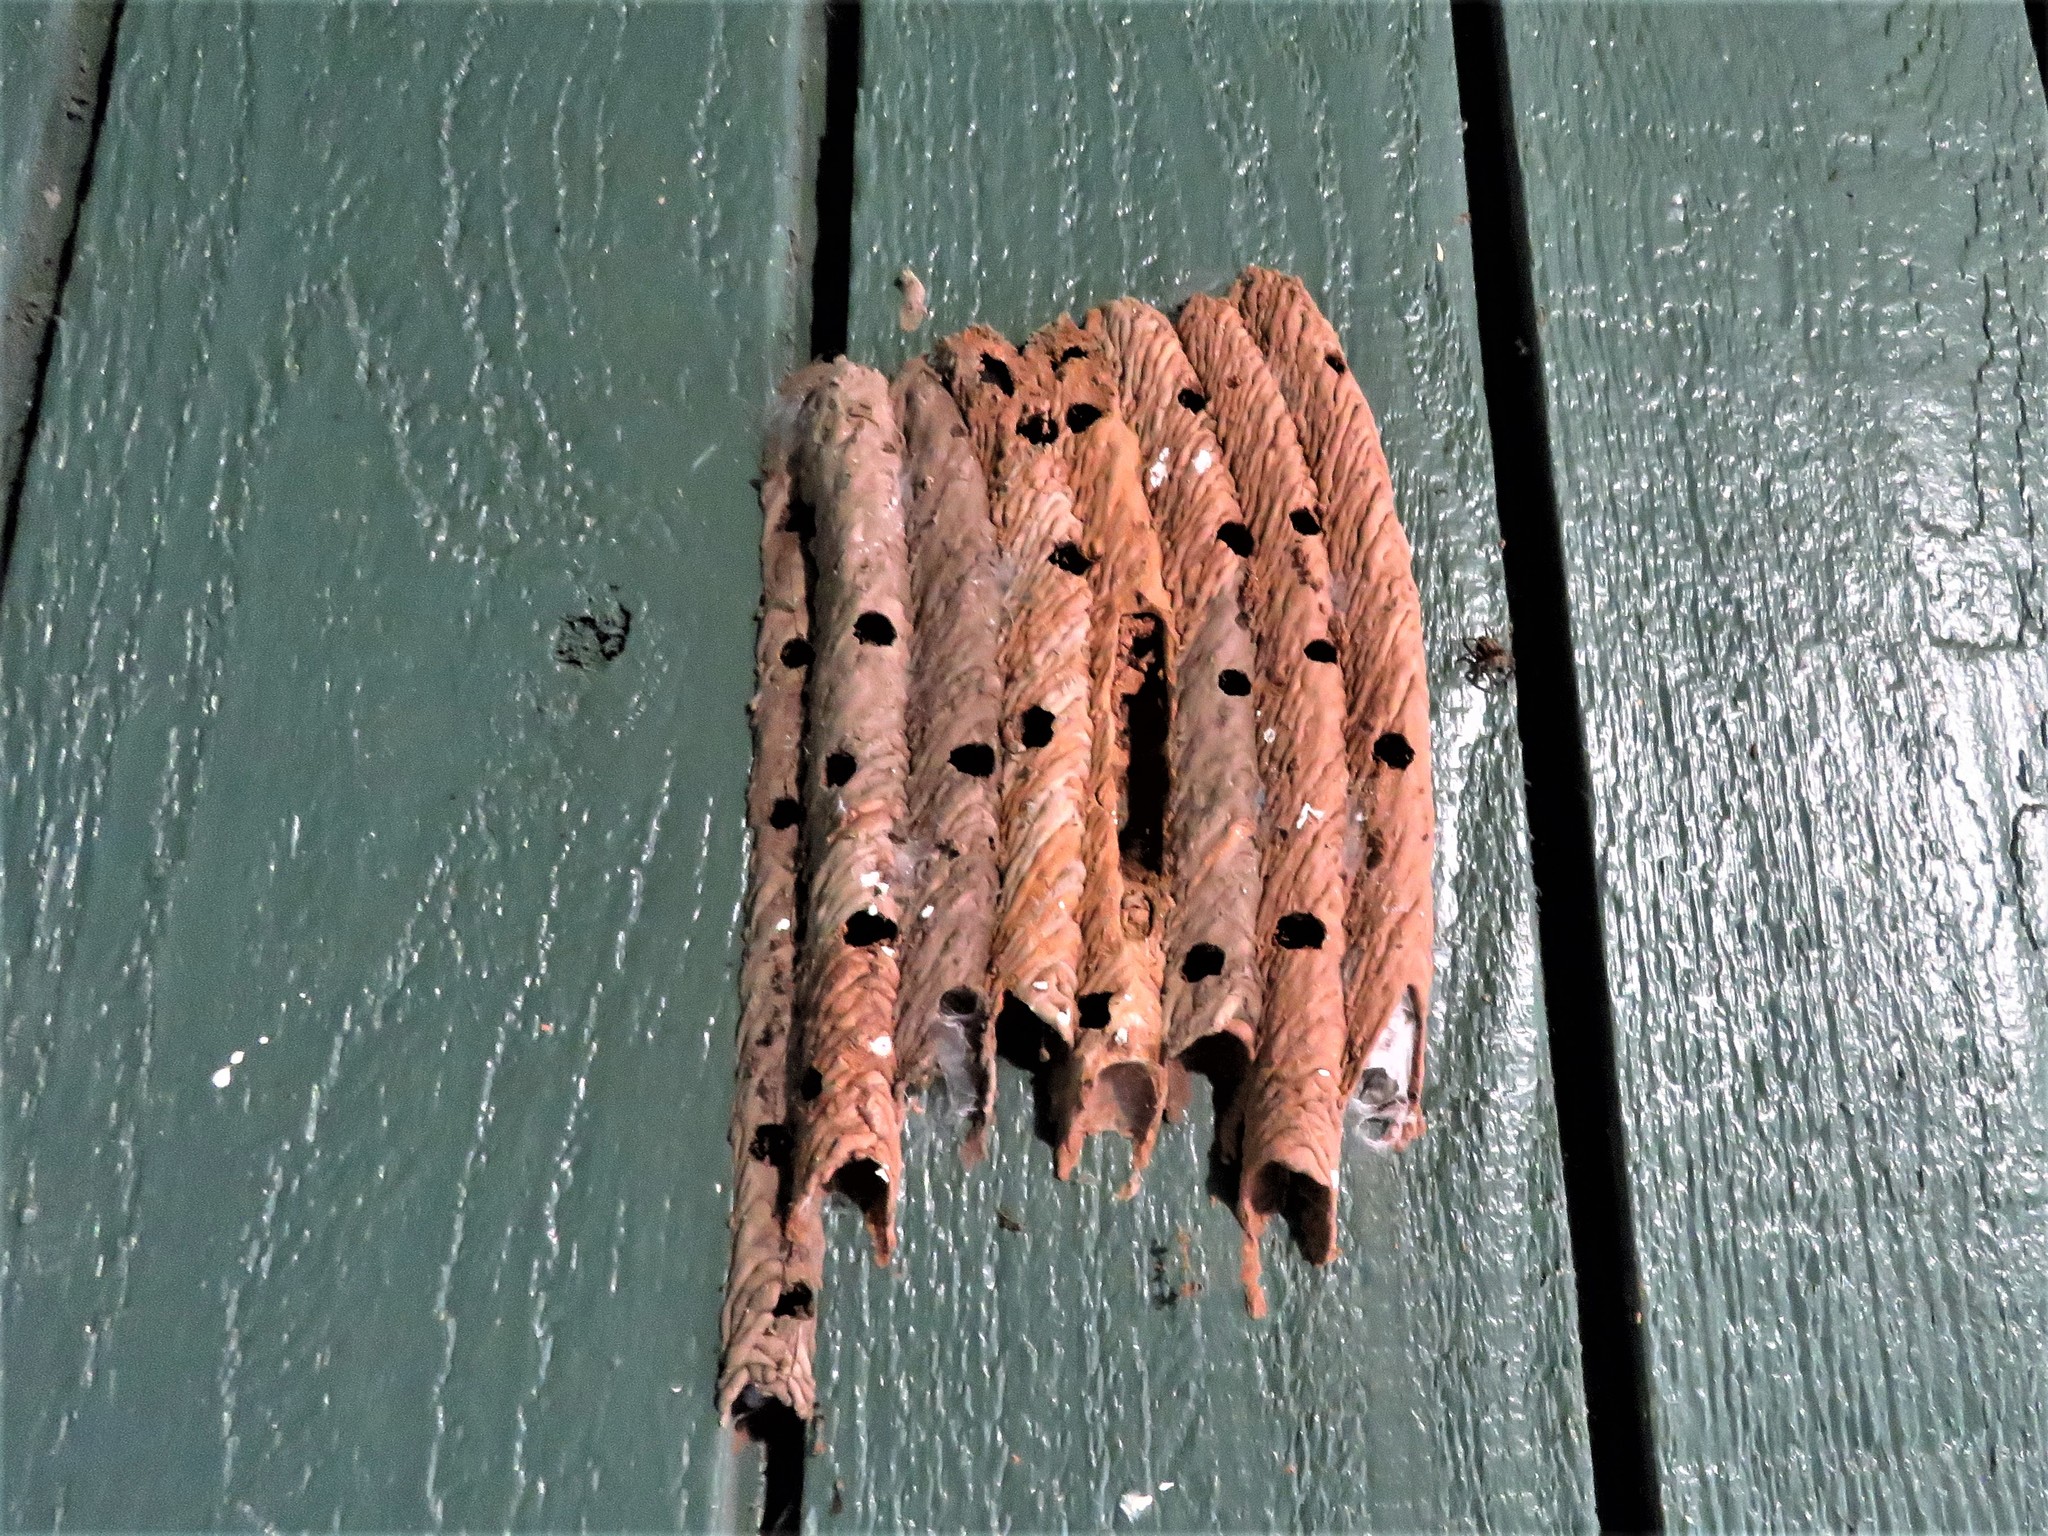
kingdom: Animalia
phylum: Arthropoda
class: Insecta
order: Hymenoptera
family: Crabronidae
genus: Trypoxylon
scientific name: Trypoxylon politum
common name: Organ-pipe mud-dauber wasp
